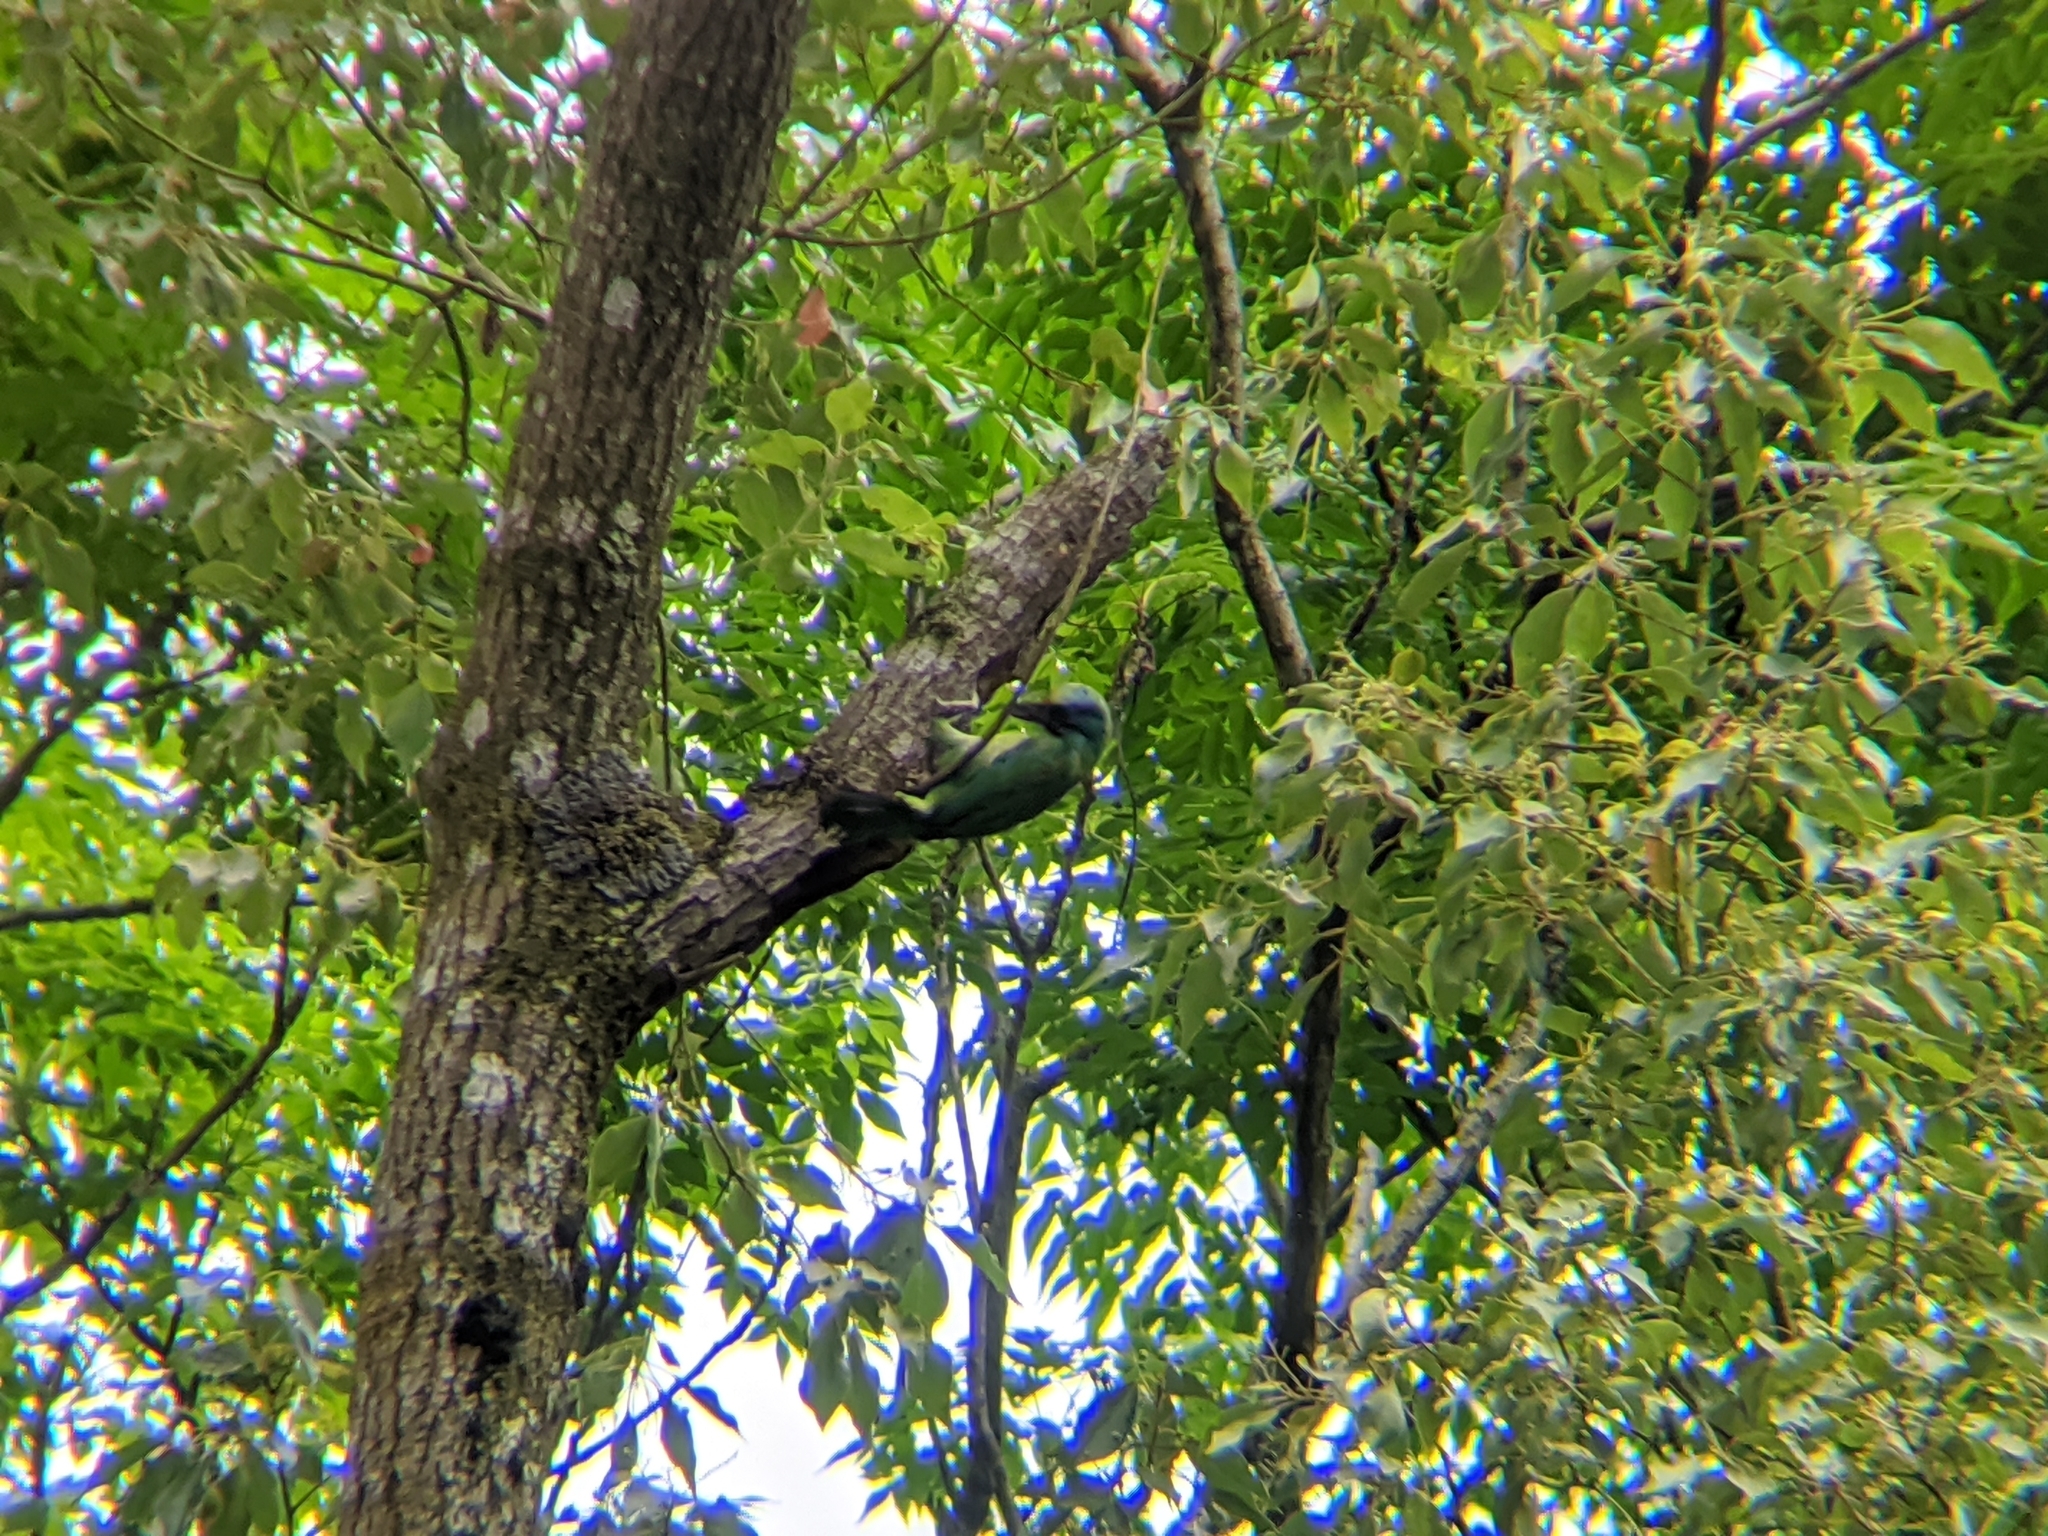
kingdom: Animalia
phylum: Chordata
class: Aves
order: Piciformes
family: Megalaimidae
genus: Psilopogon
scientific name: Psilopogon nuchalis
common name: Taiwan barbet
